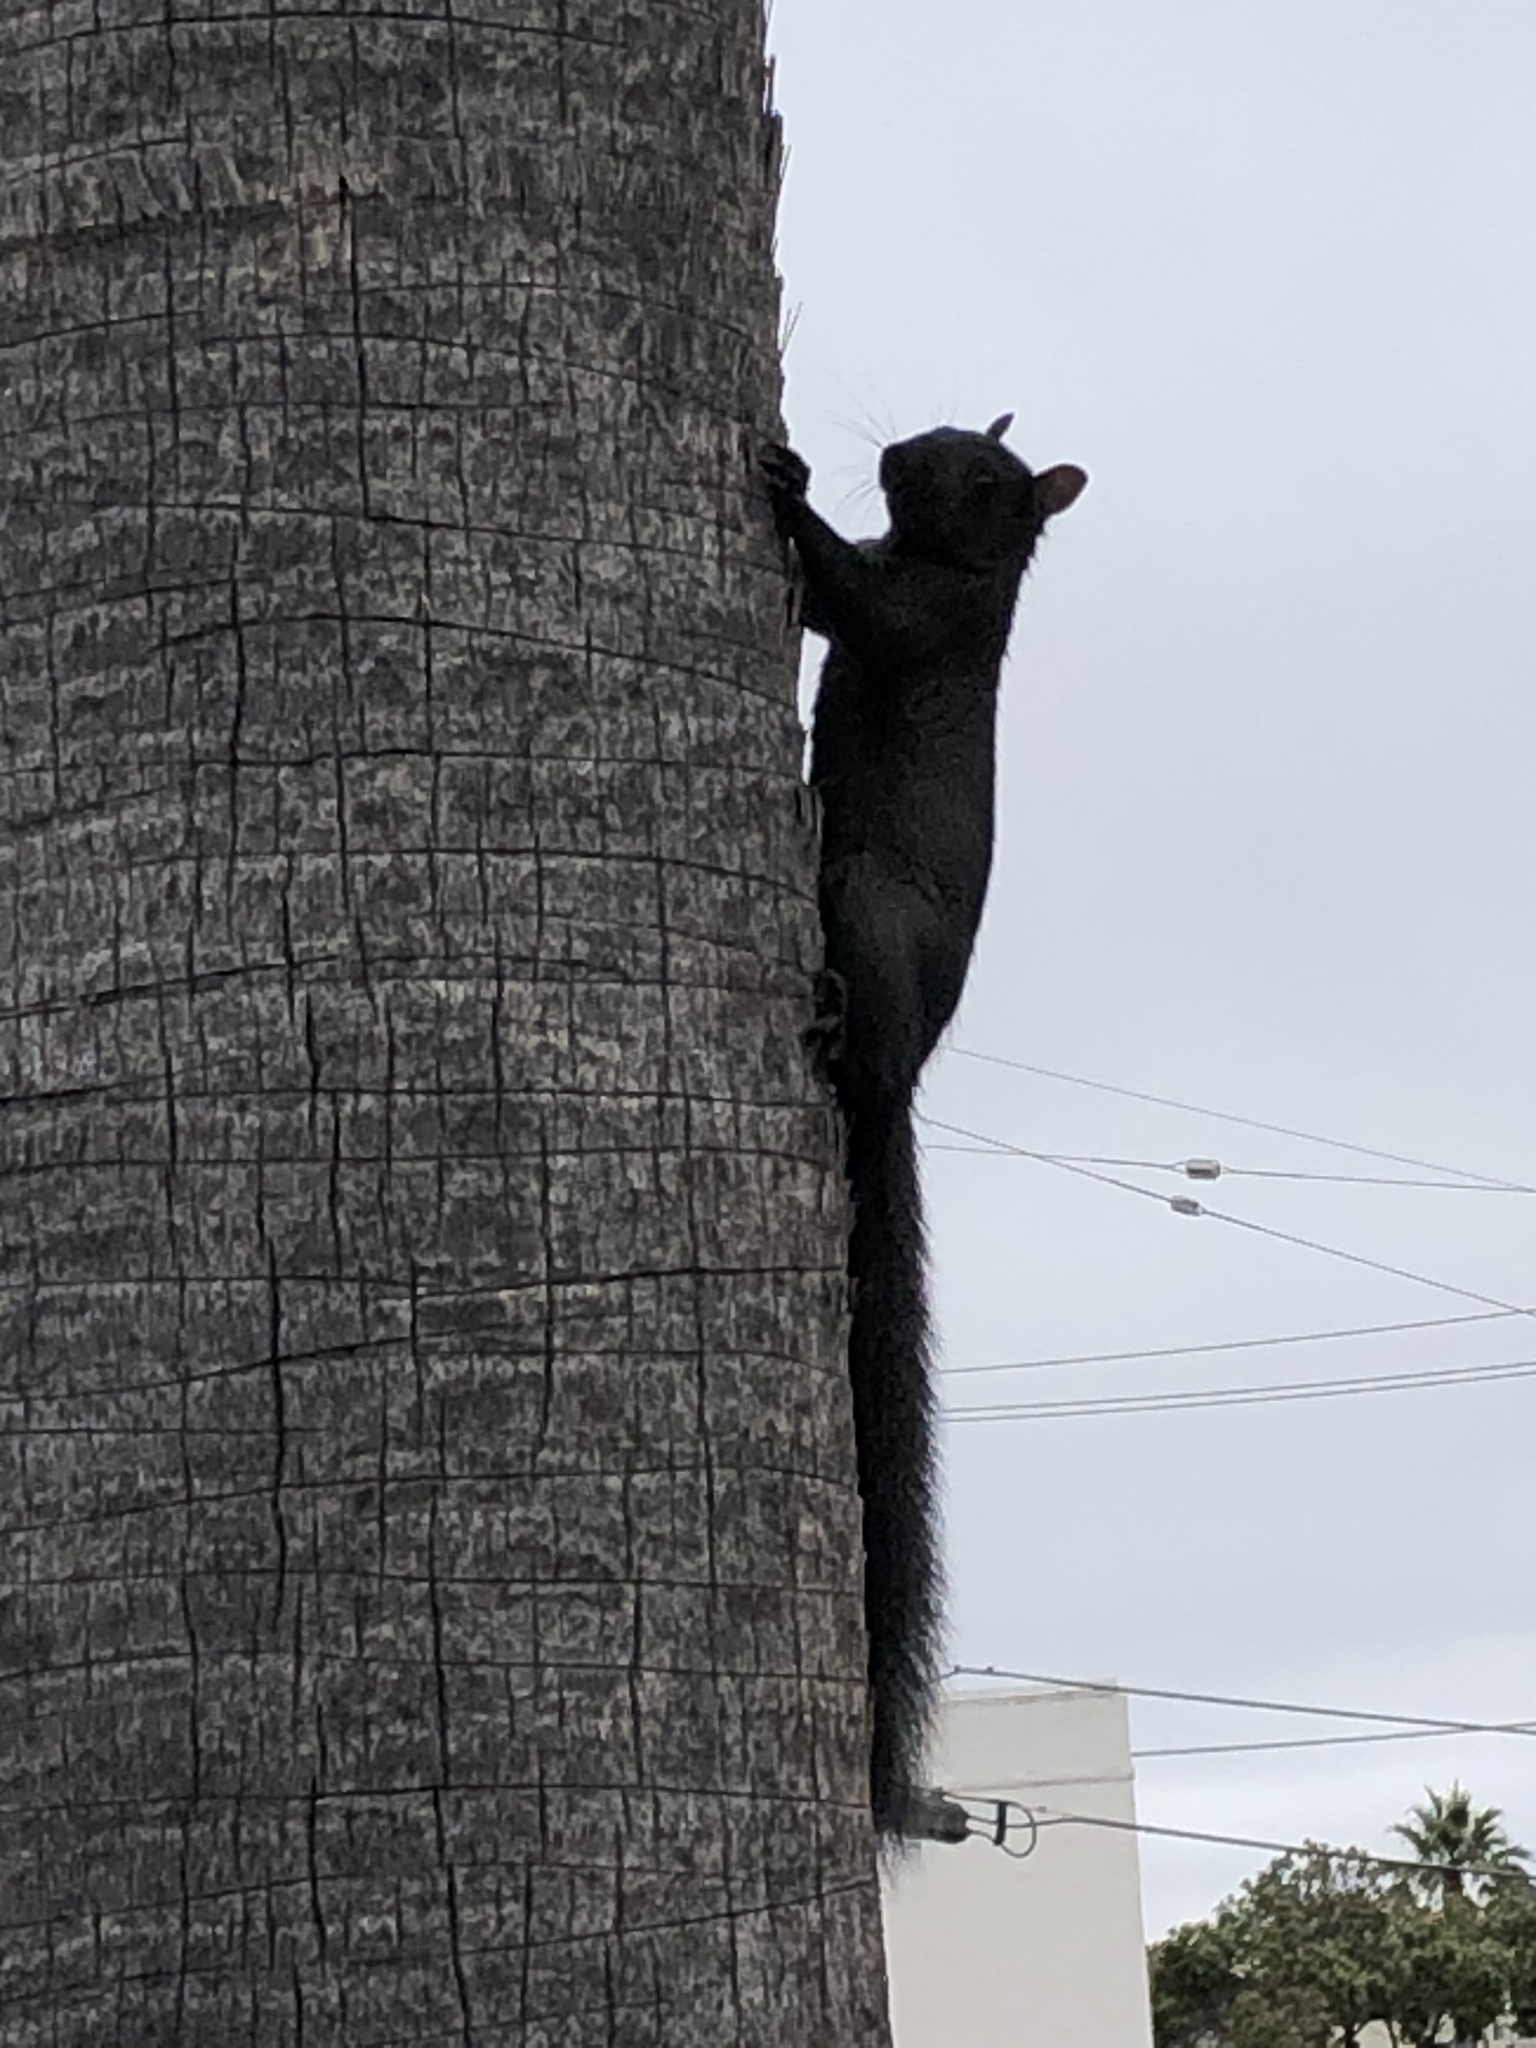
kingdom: Animalia
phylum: Chordata
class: Mammalia
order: Rodentia
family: Sciuridae
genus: Sciurus
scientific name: Sciurus carolinensis
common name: Eastern gray squirrel
